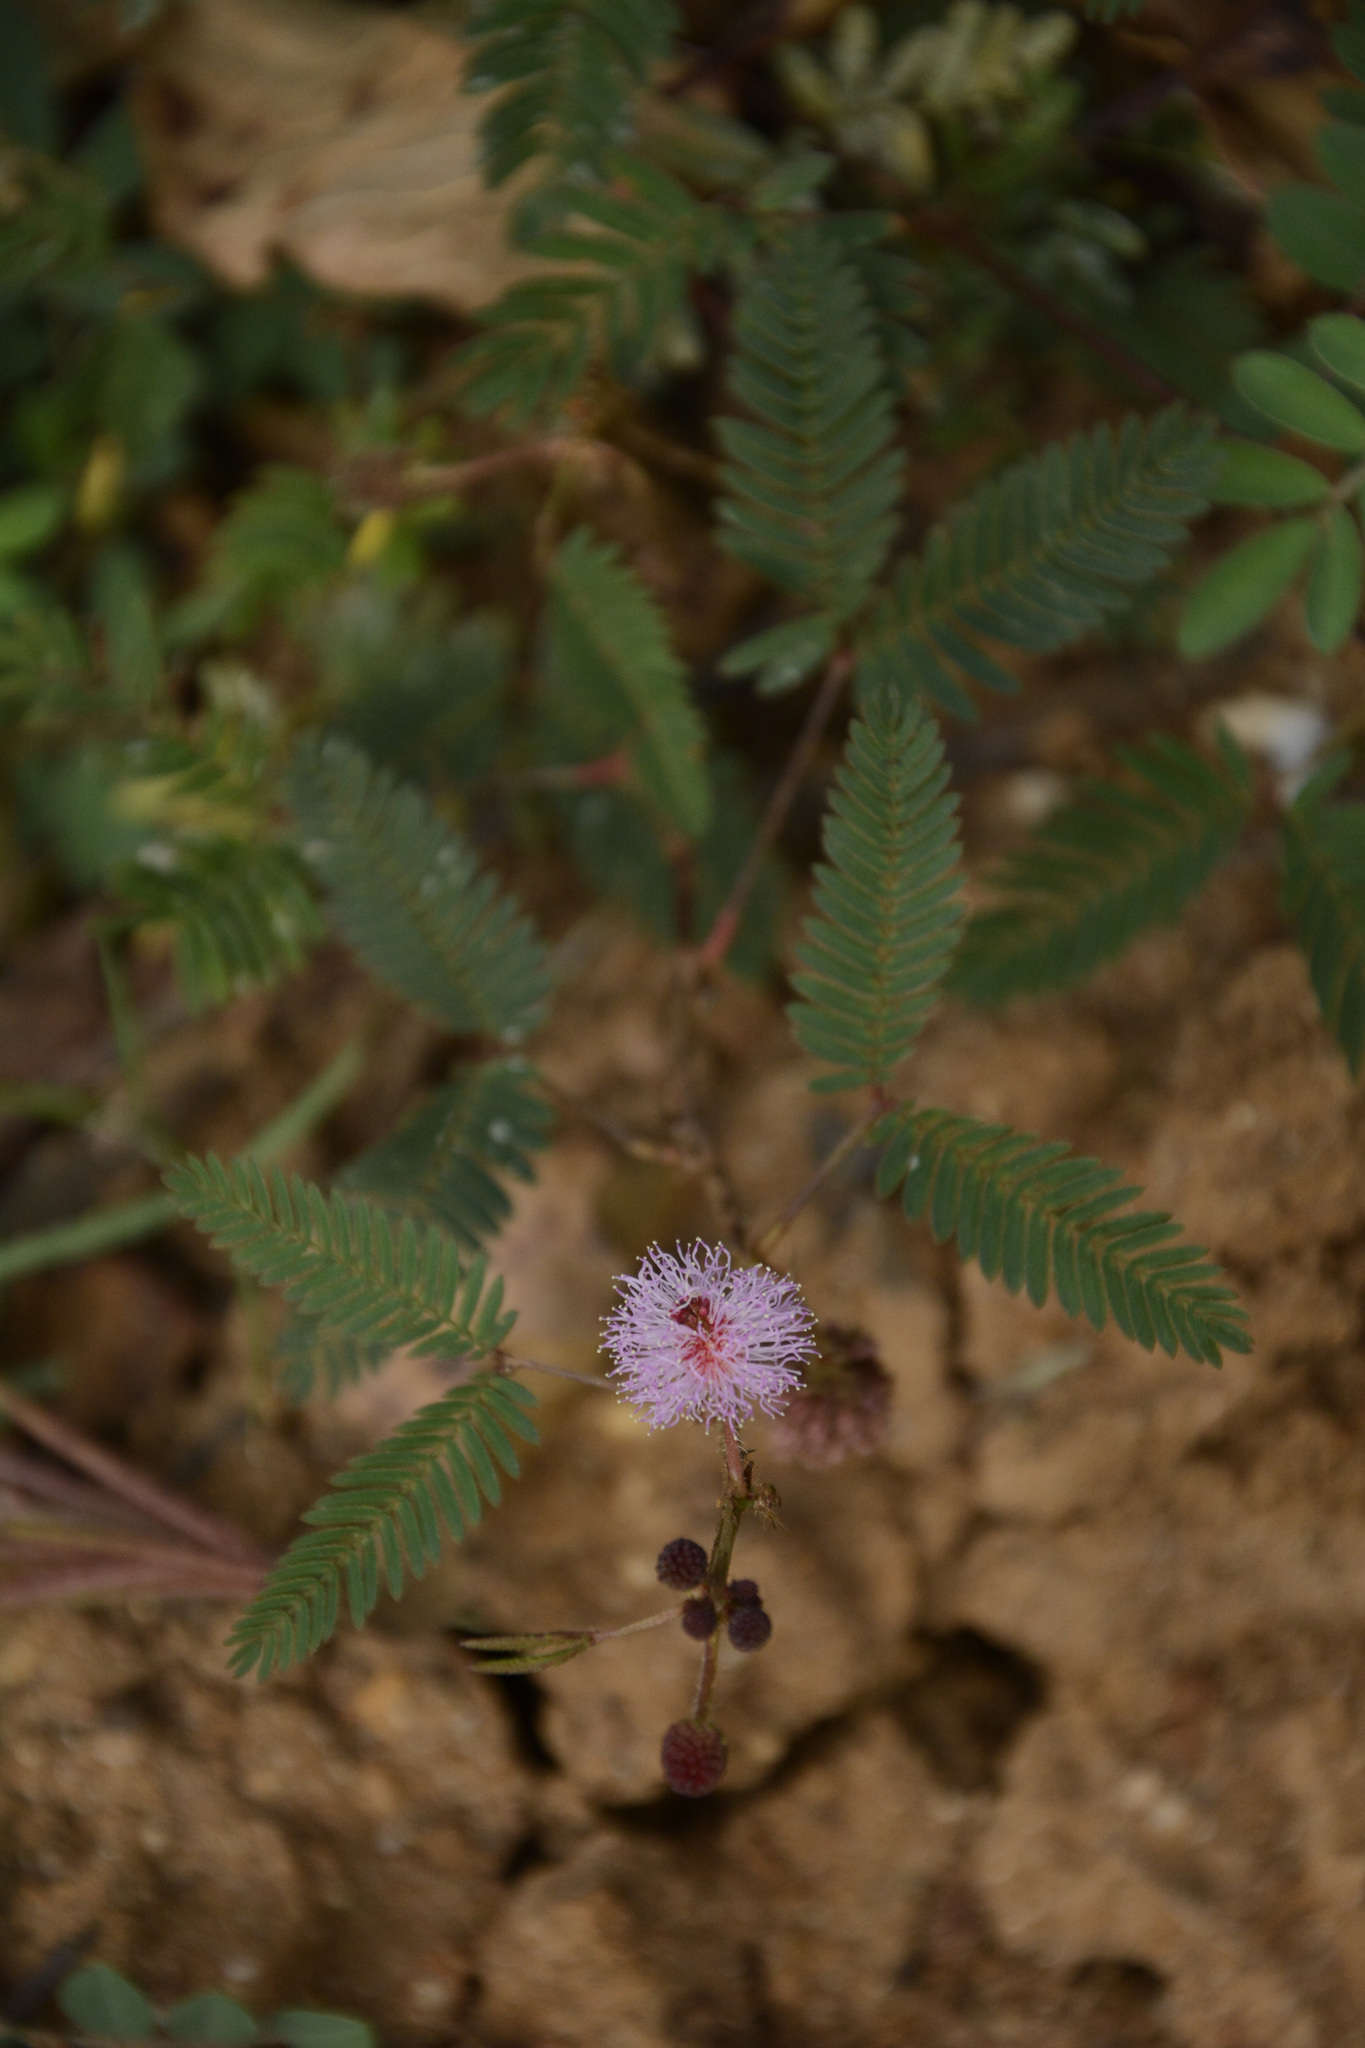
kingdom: Plantae
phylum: Tracheophyta
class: Magnoliopsida
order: Fabales
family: Fabaceae
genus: Mimosa
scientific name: Mimosa pudica
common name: Sensitive plant
